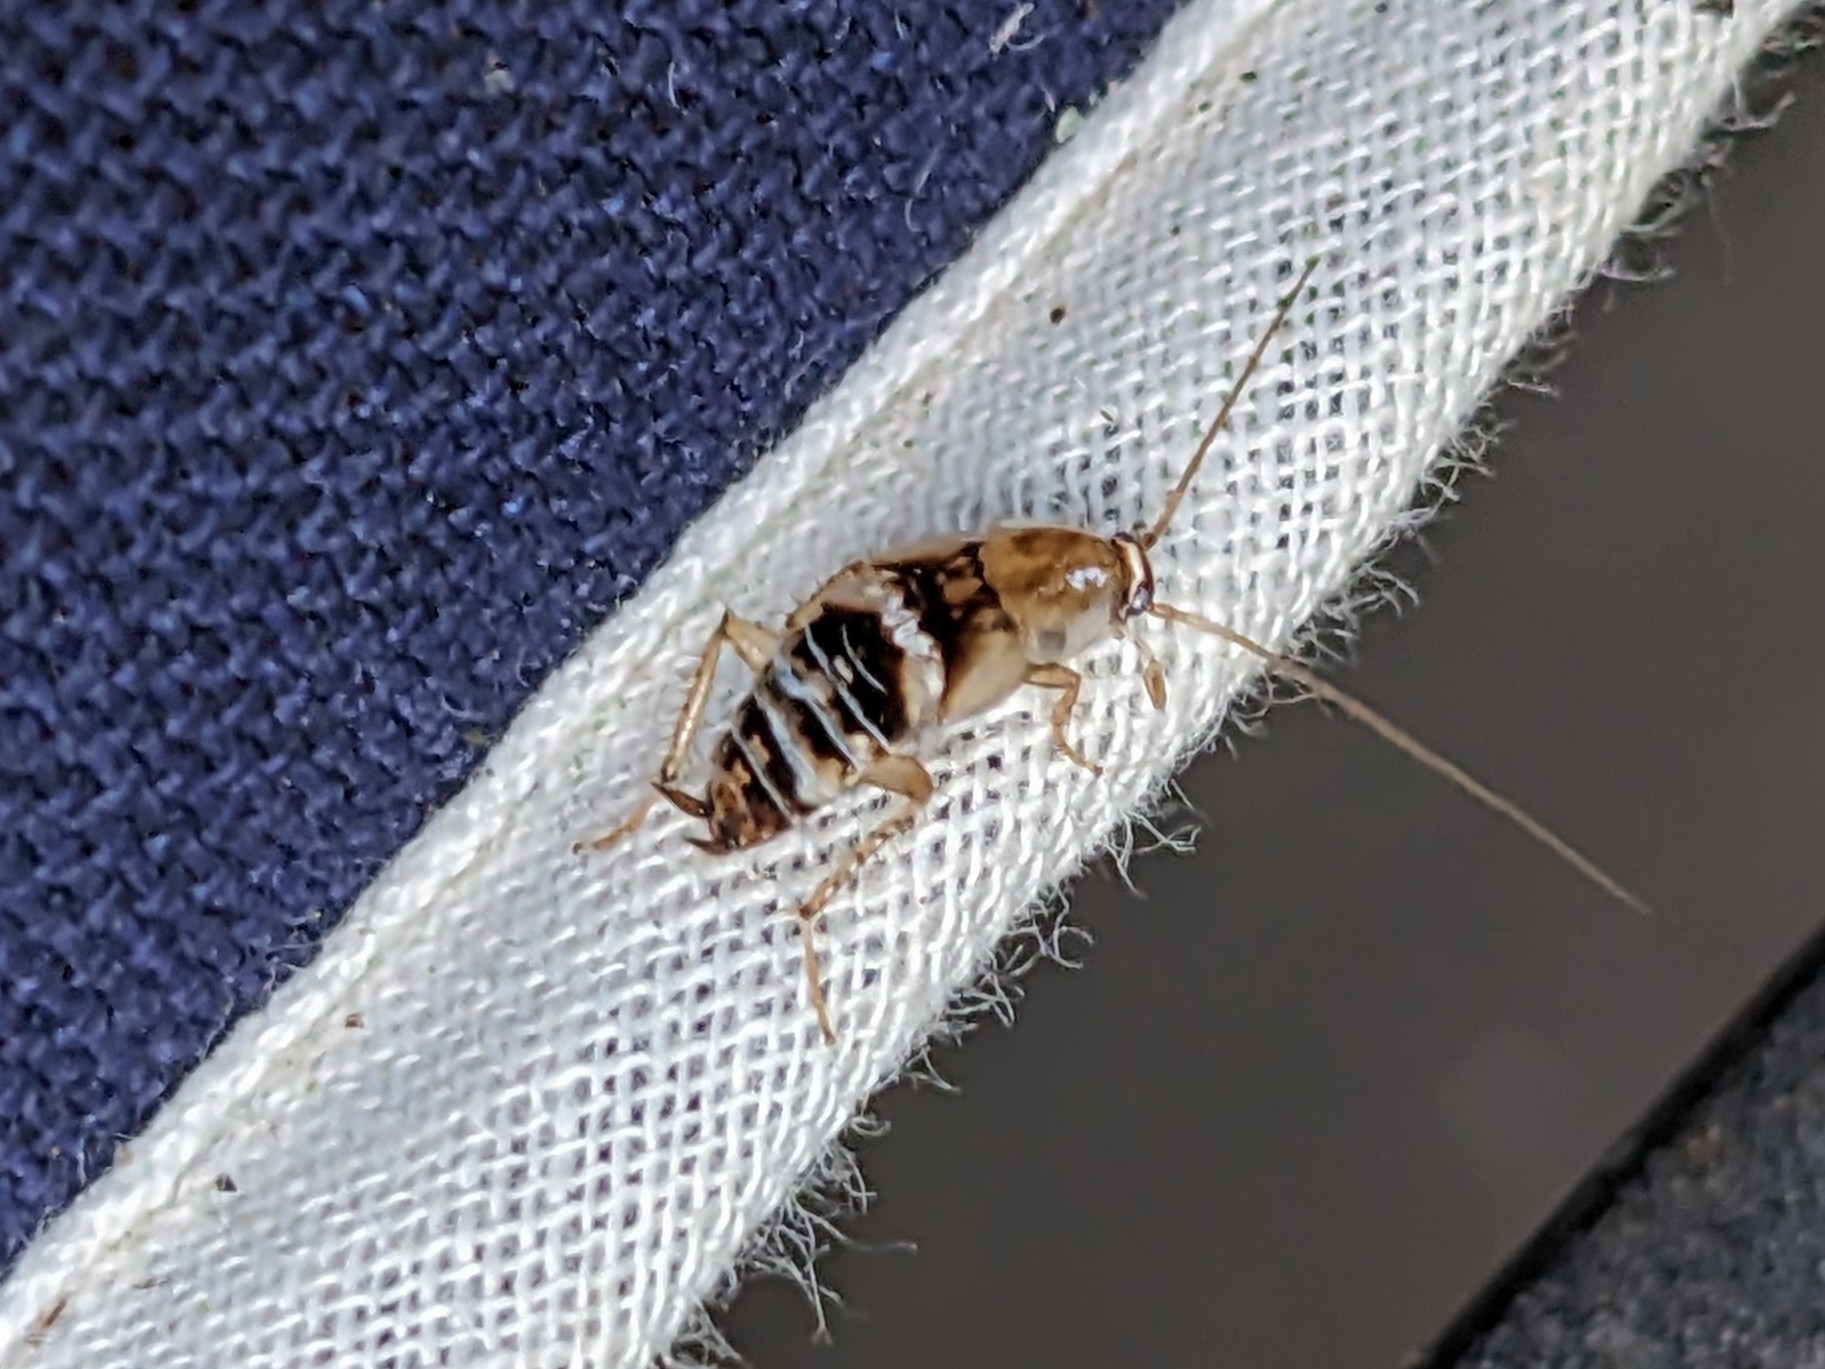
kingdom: Animalia
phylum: Arthropoda
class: Insecta
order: Blattodea
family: Ectobiidae
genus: Planuncus
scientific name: Planuncus tingitanus
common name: Variable cockroach
